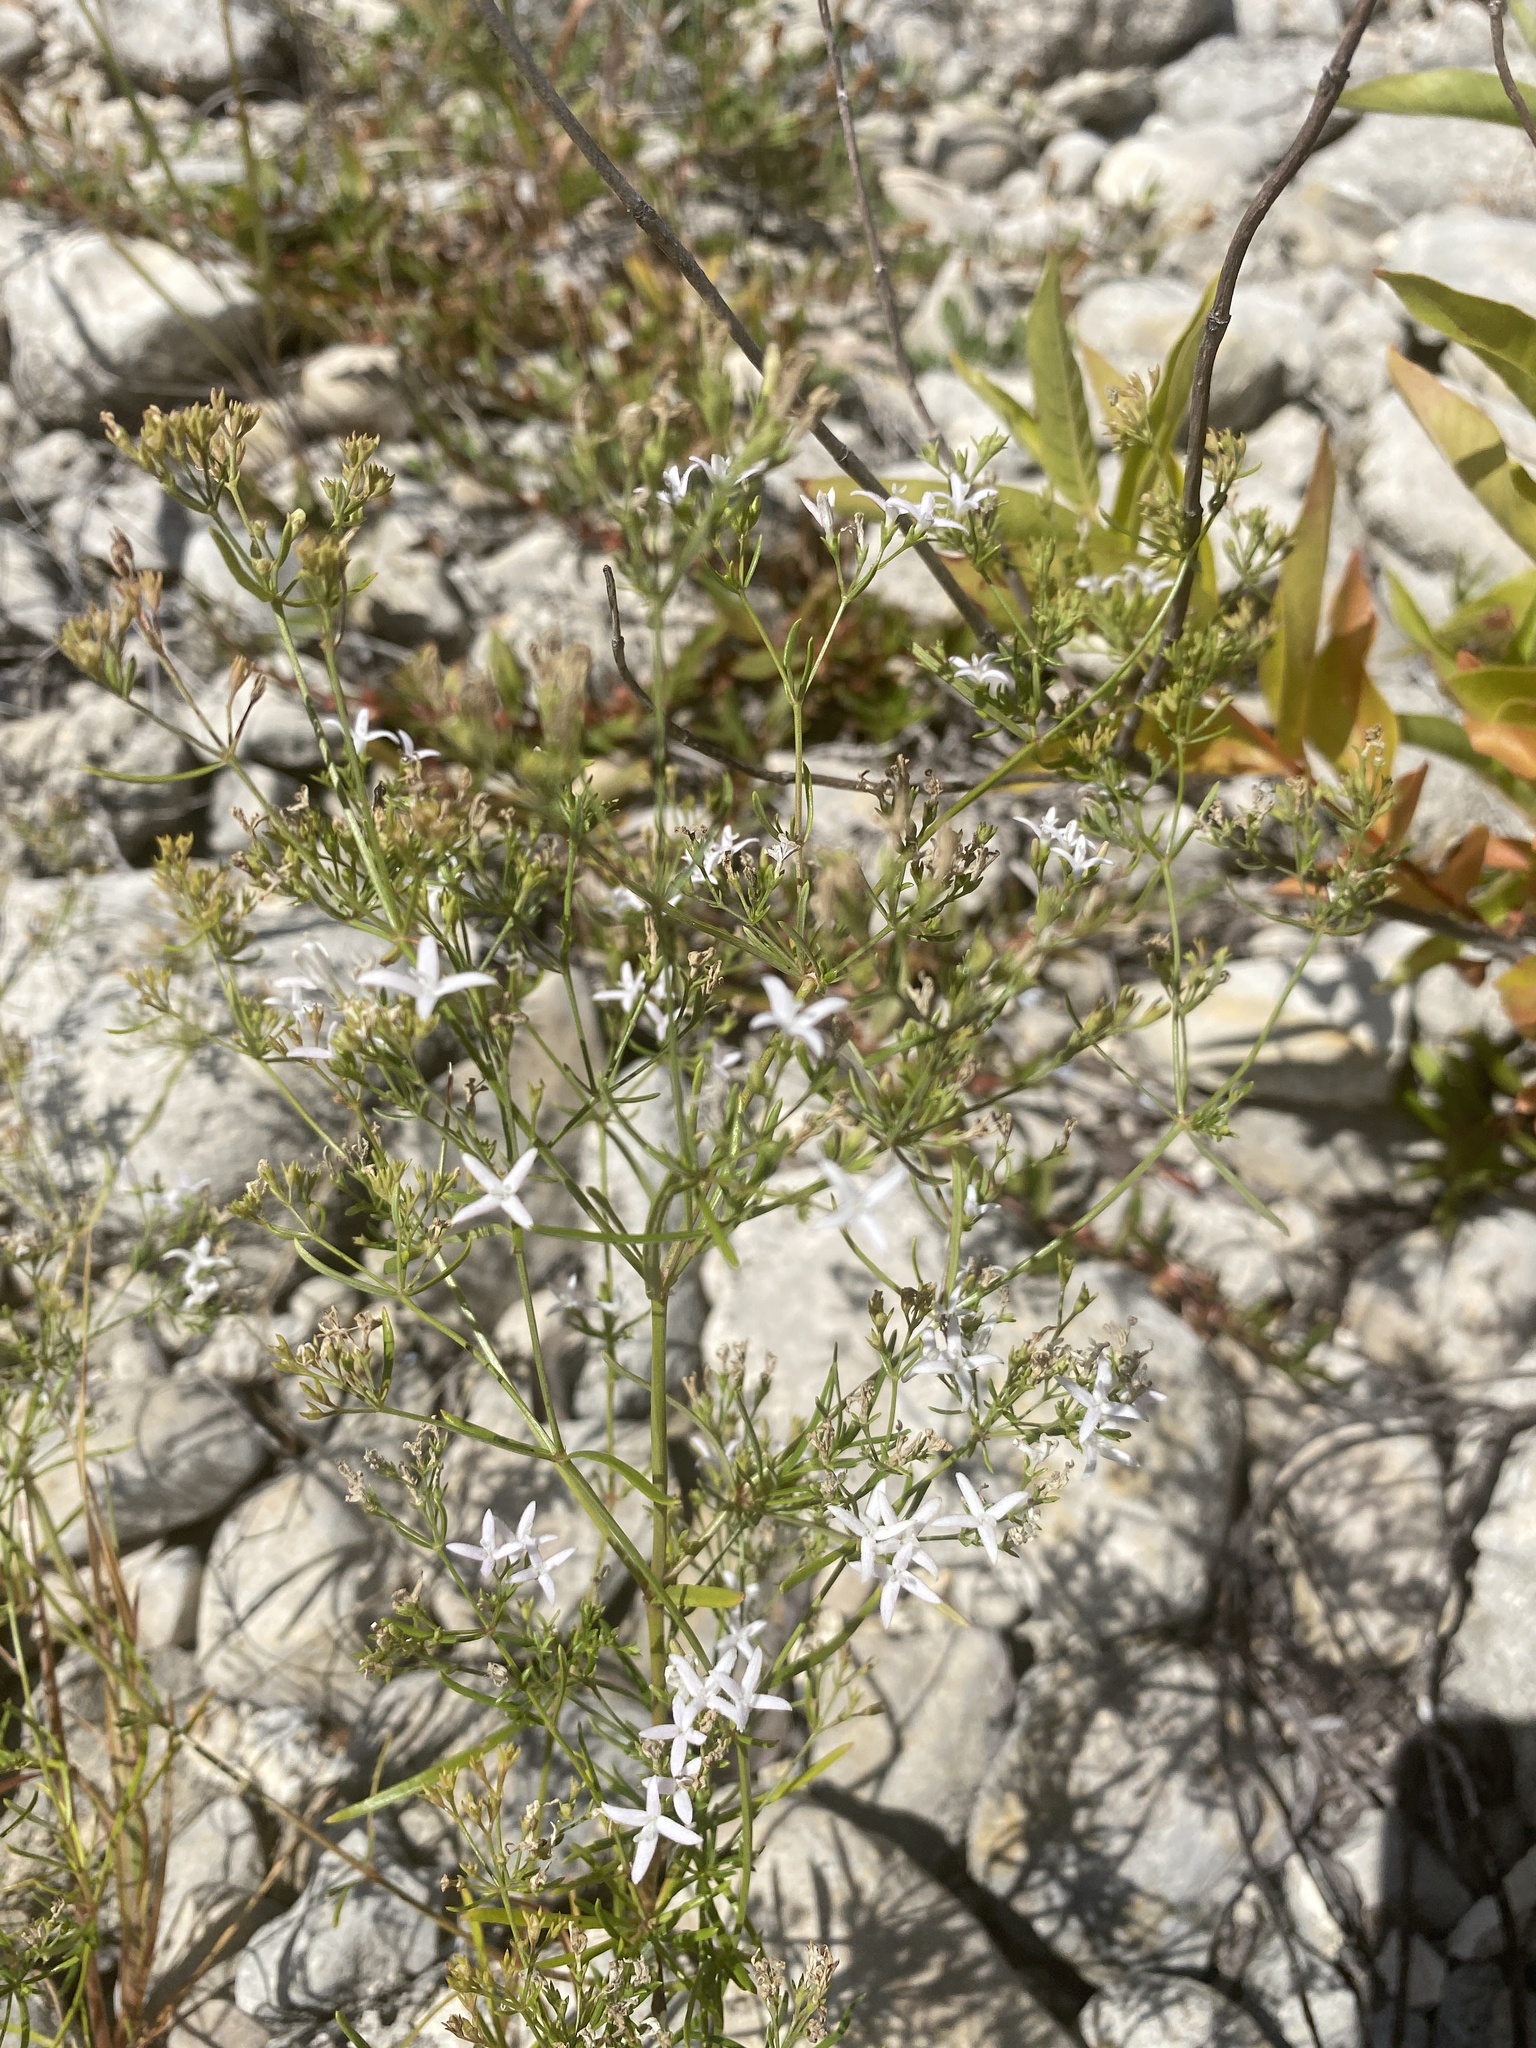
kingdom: Plantae
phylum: Tracheophyta
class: Magnoliopsida
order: Gentianales
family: Rubiaceae
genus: Stenaria
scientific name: Stenaria nigricans
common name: Diamondflowers
